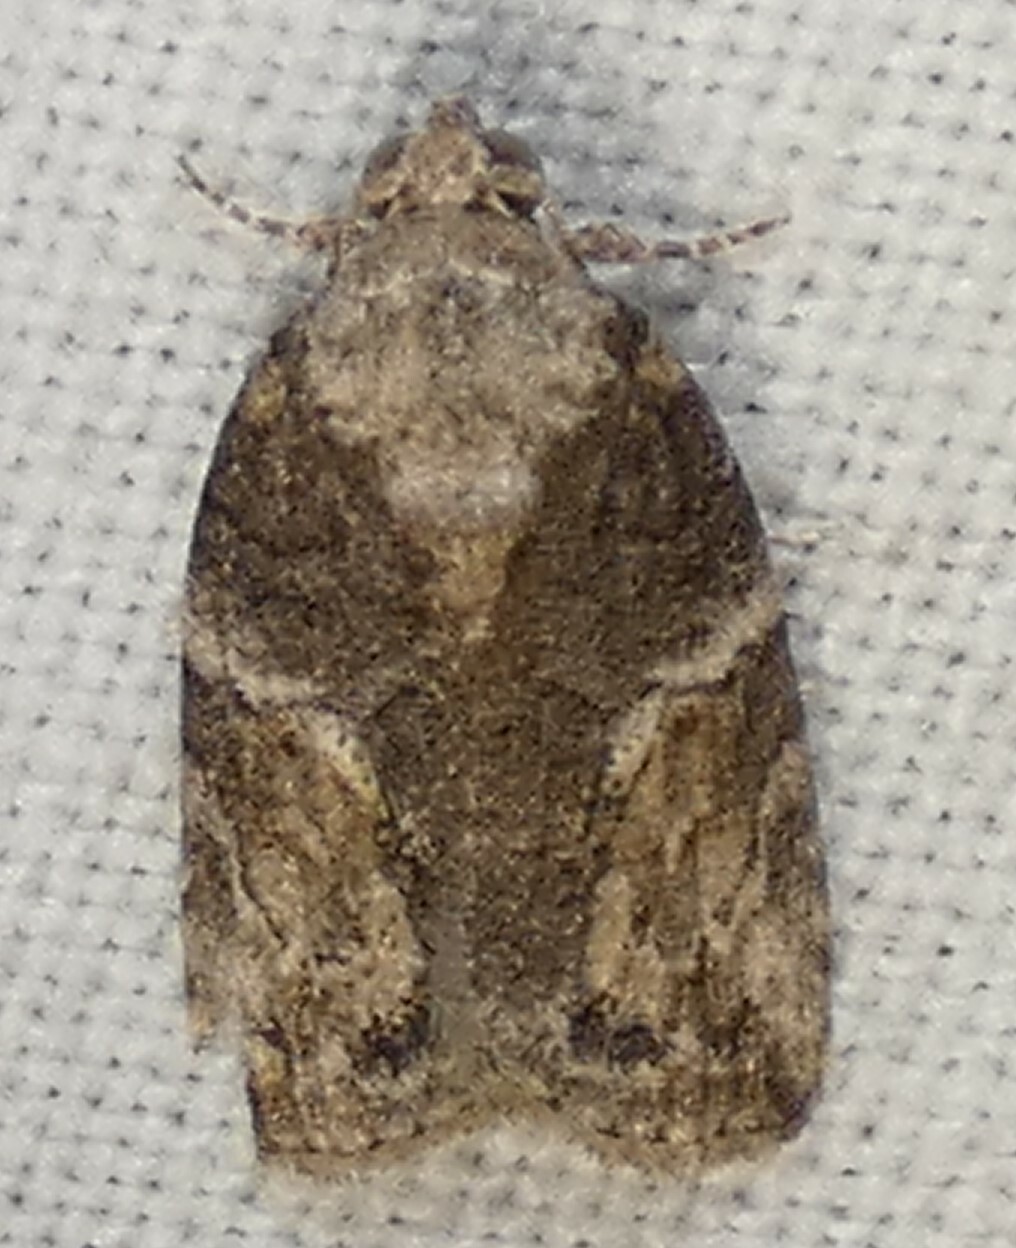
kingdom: Animalia
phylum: Arthropoda
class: Insecta
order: Lepidoptera
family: Nolidae
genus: Garella
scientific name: Garella nilotica
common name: Black-olive caterpillar moth
